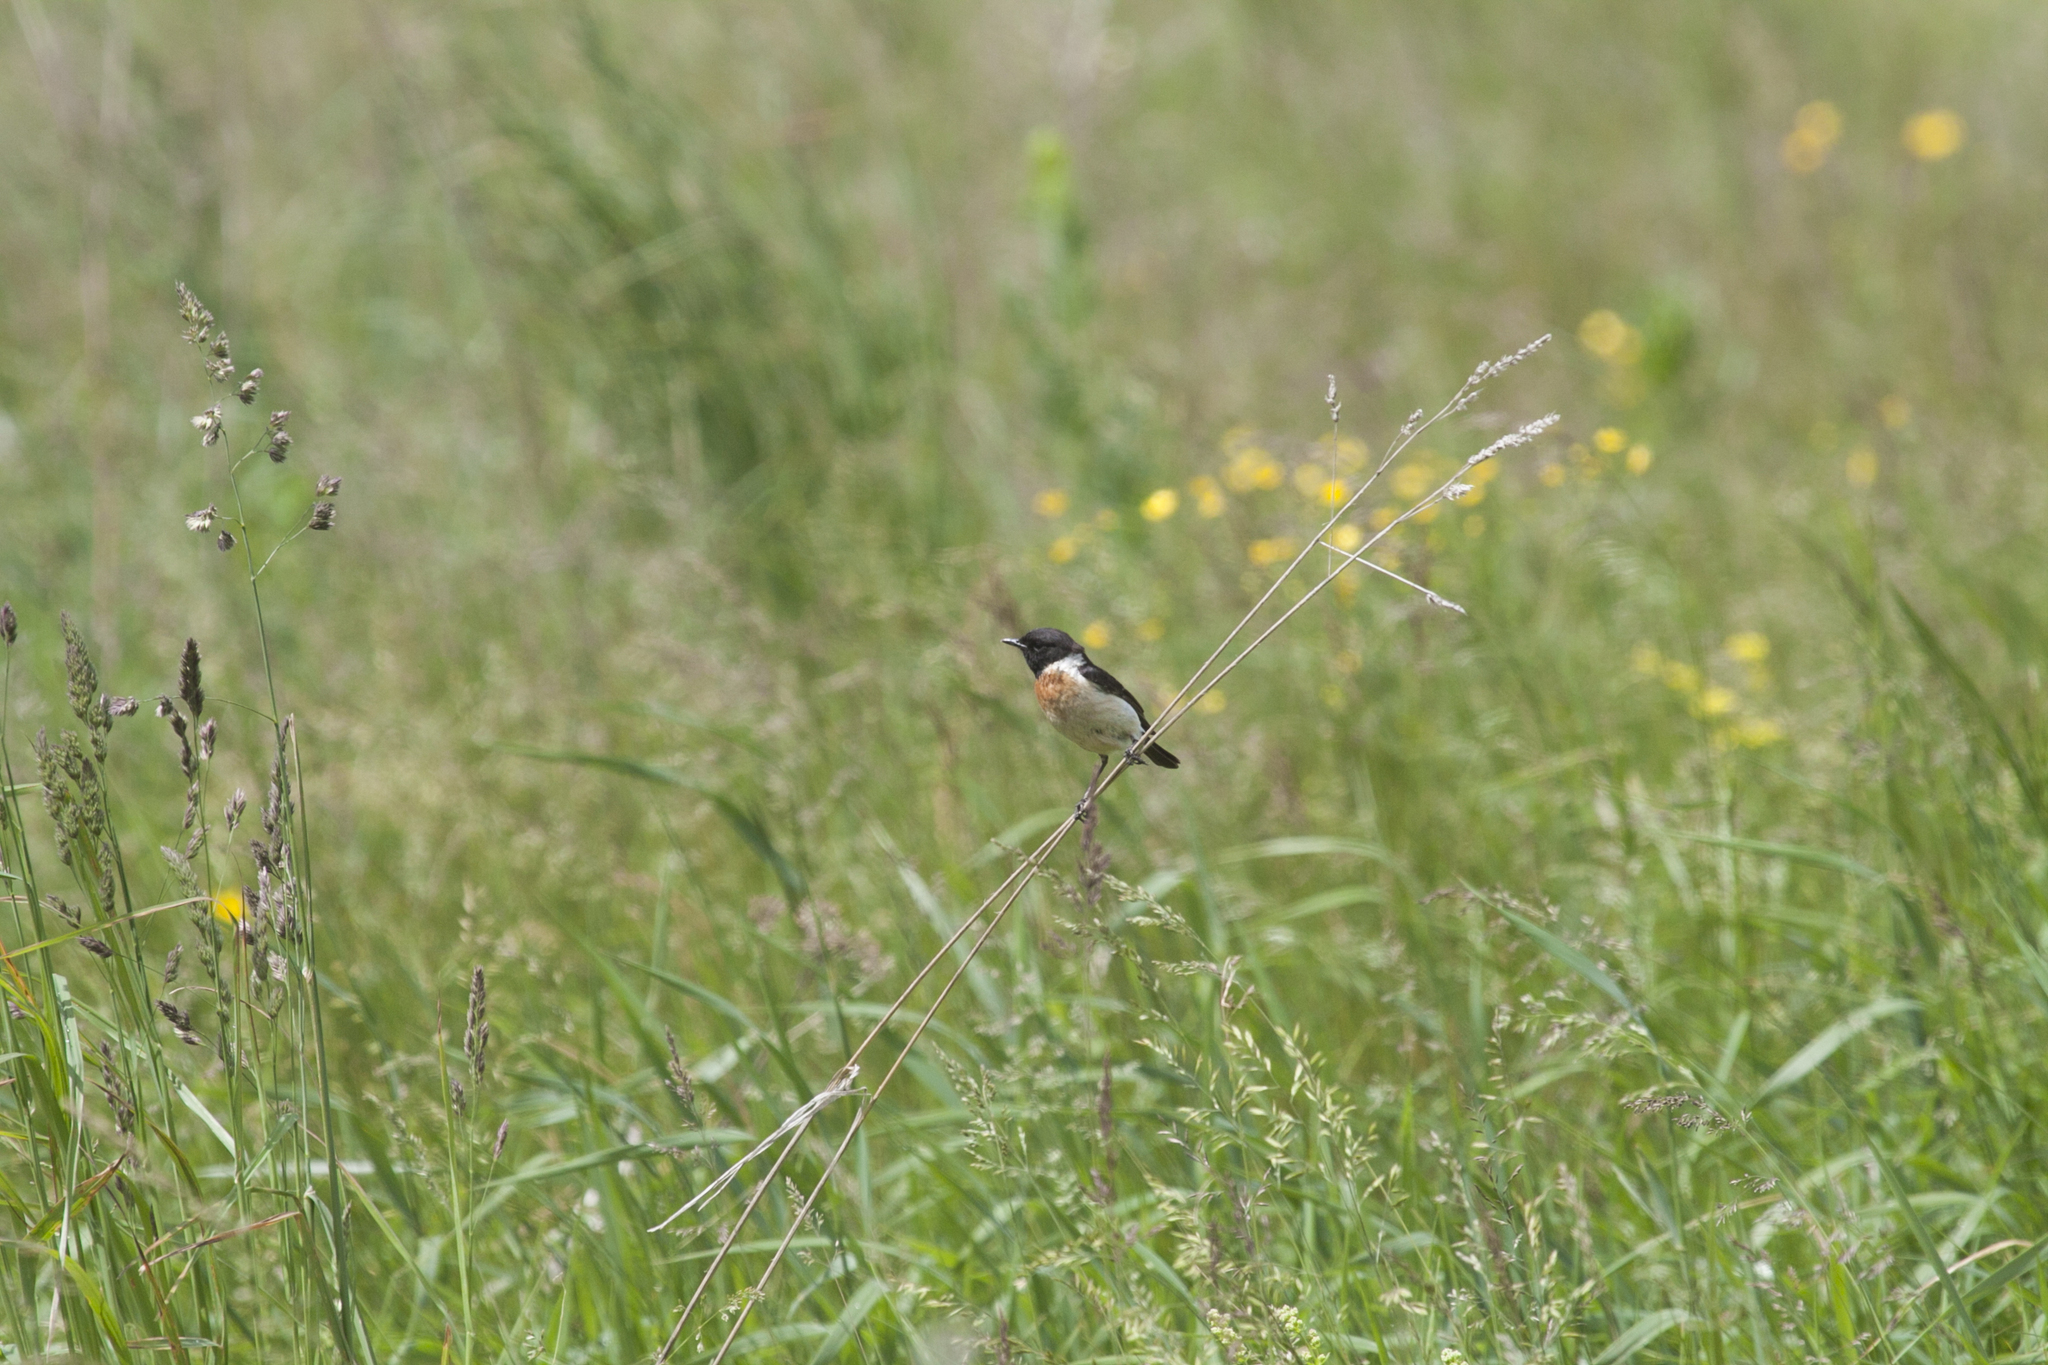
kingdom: Animalia
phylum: Chordata
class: Aves
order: Passeriformes
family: Muscicapidae
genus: Saxicola
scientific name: Saxicola maurus
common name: Siberian stonechat
